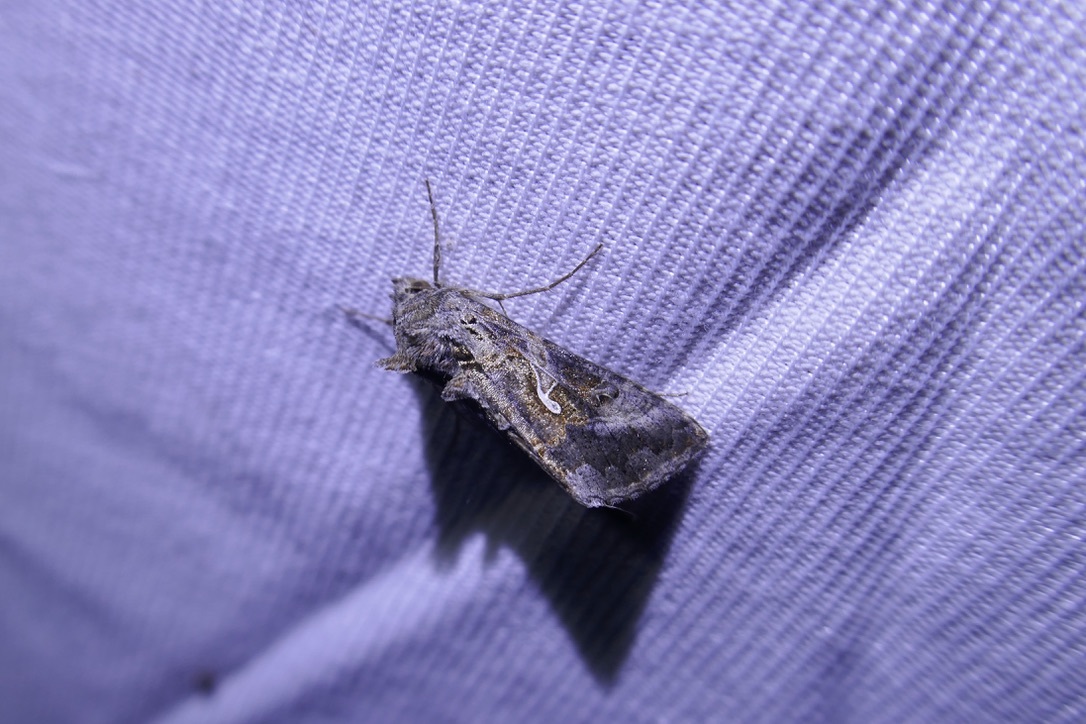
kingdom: Animalia
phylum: Arthropoda
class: Insecta
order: Lepidoptera
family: Noctuidae
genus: Autographa
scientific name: Autographa gamma
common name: Silver y
